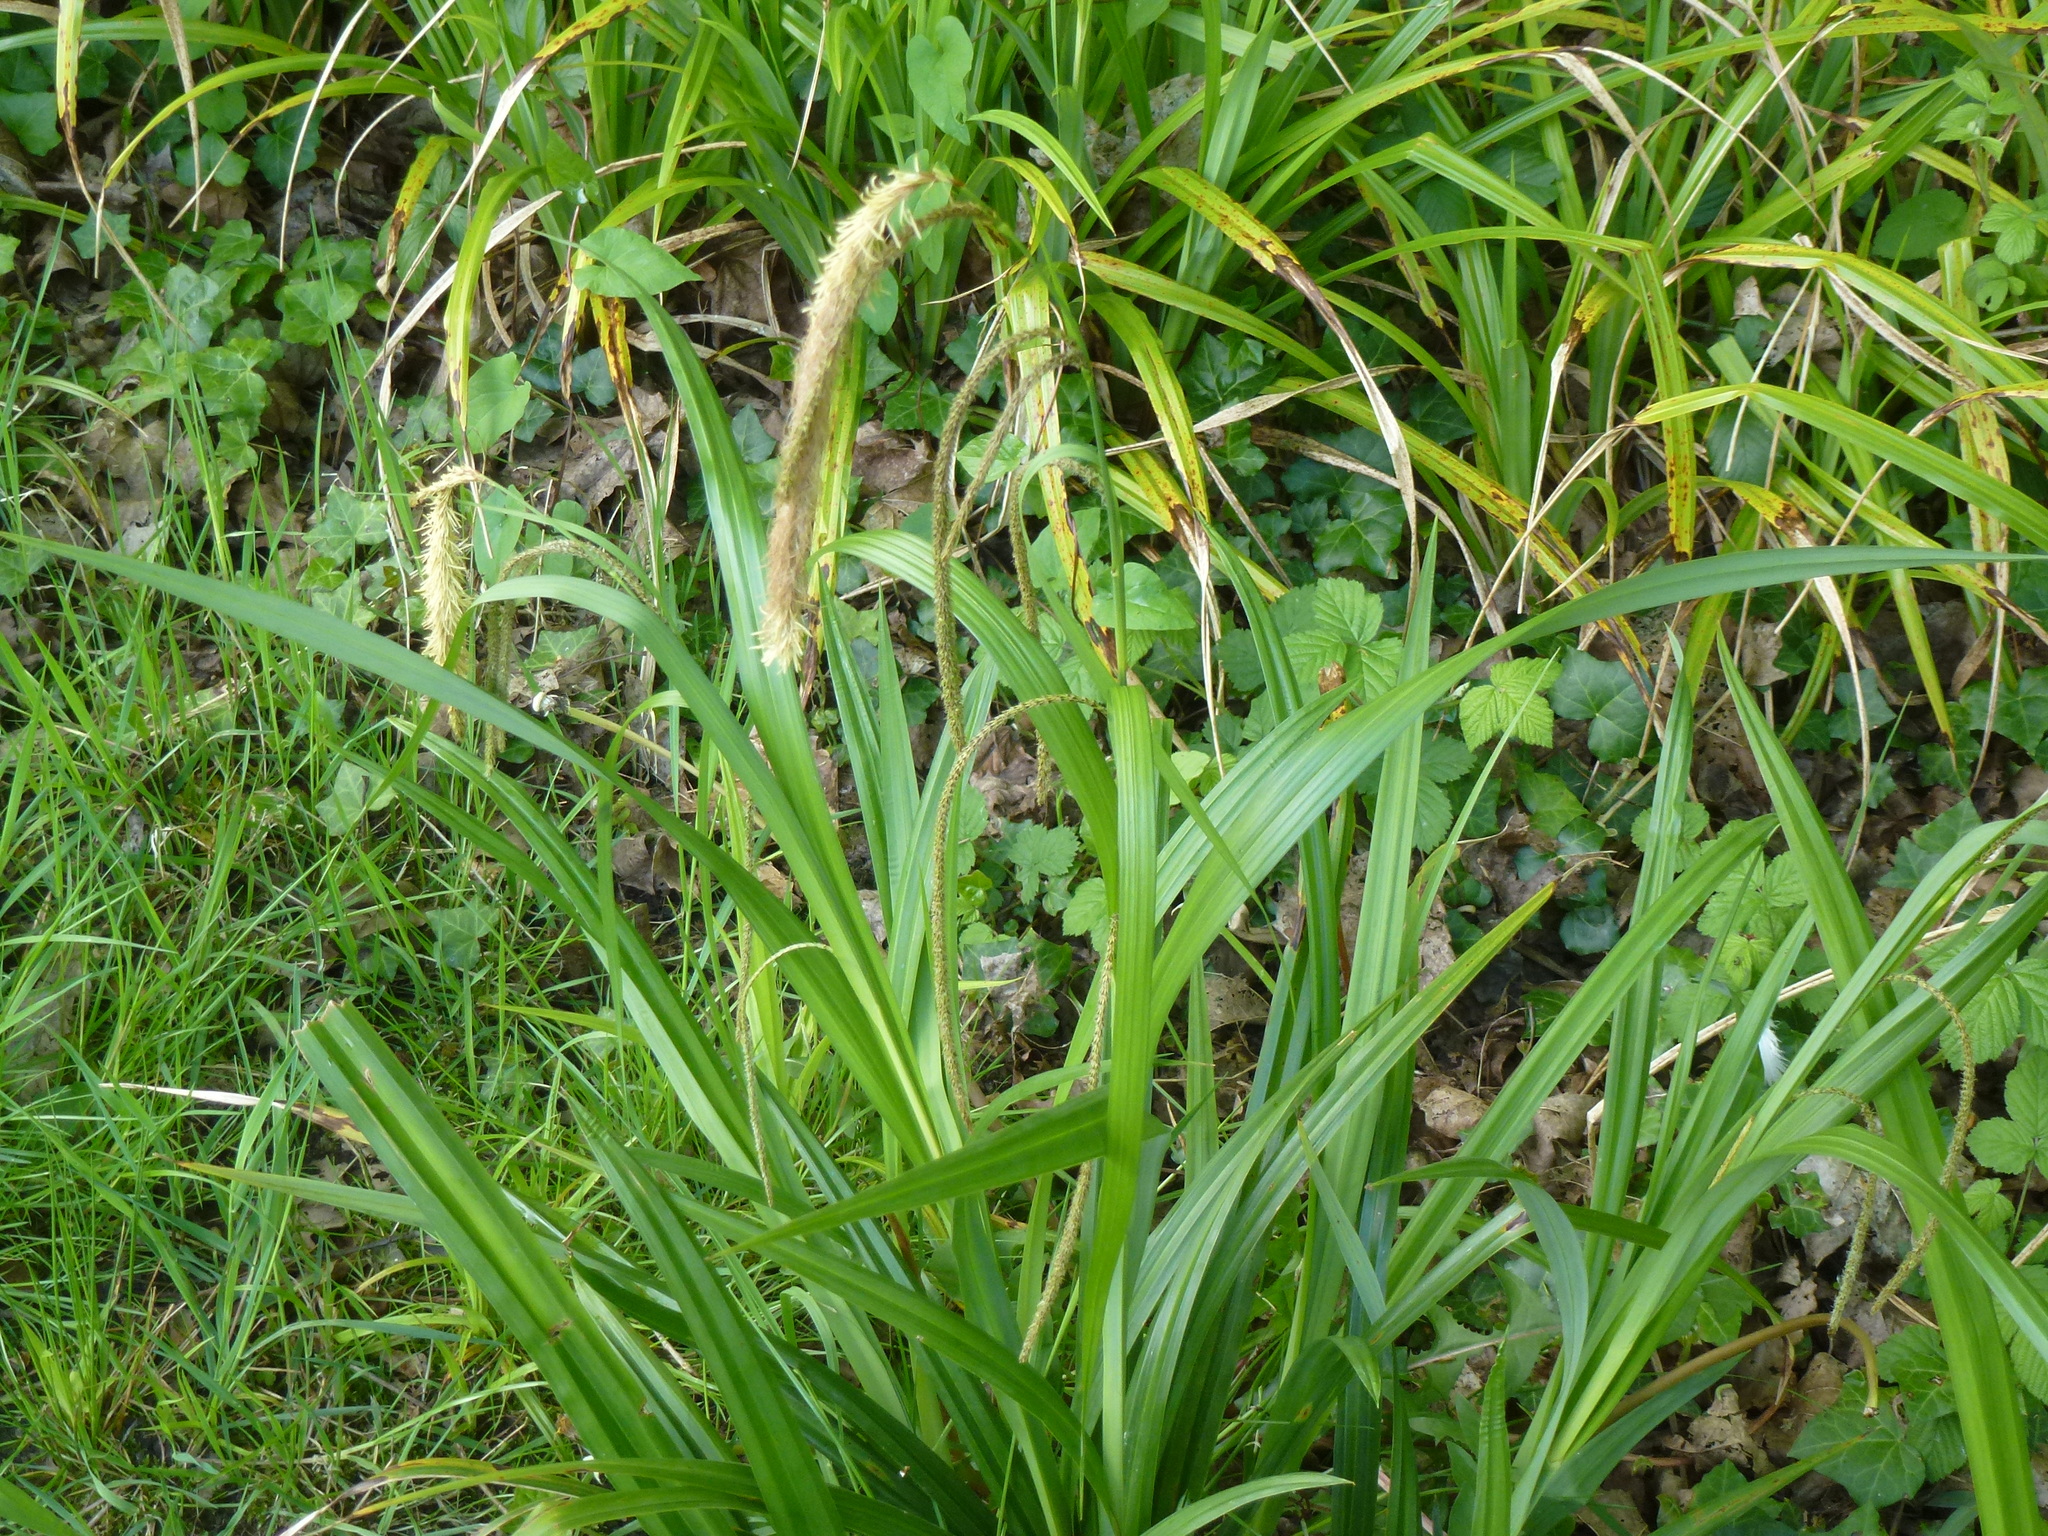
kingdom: Plantae
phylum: Tracheophyta
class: Liliopsida
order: Poales
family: Cyperaceae
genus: Carex
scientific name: Carex pendula
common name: Pendulous sedge
